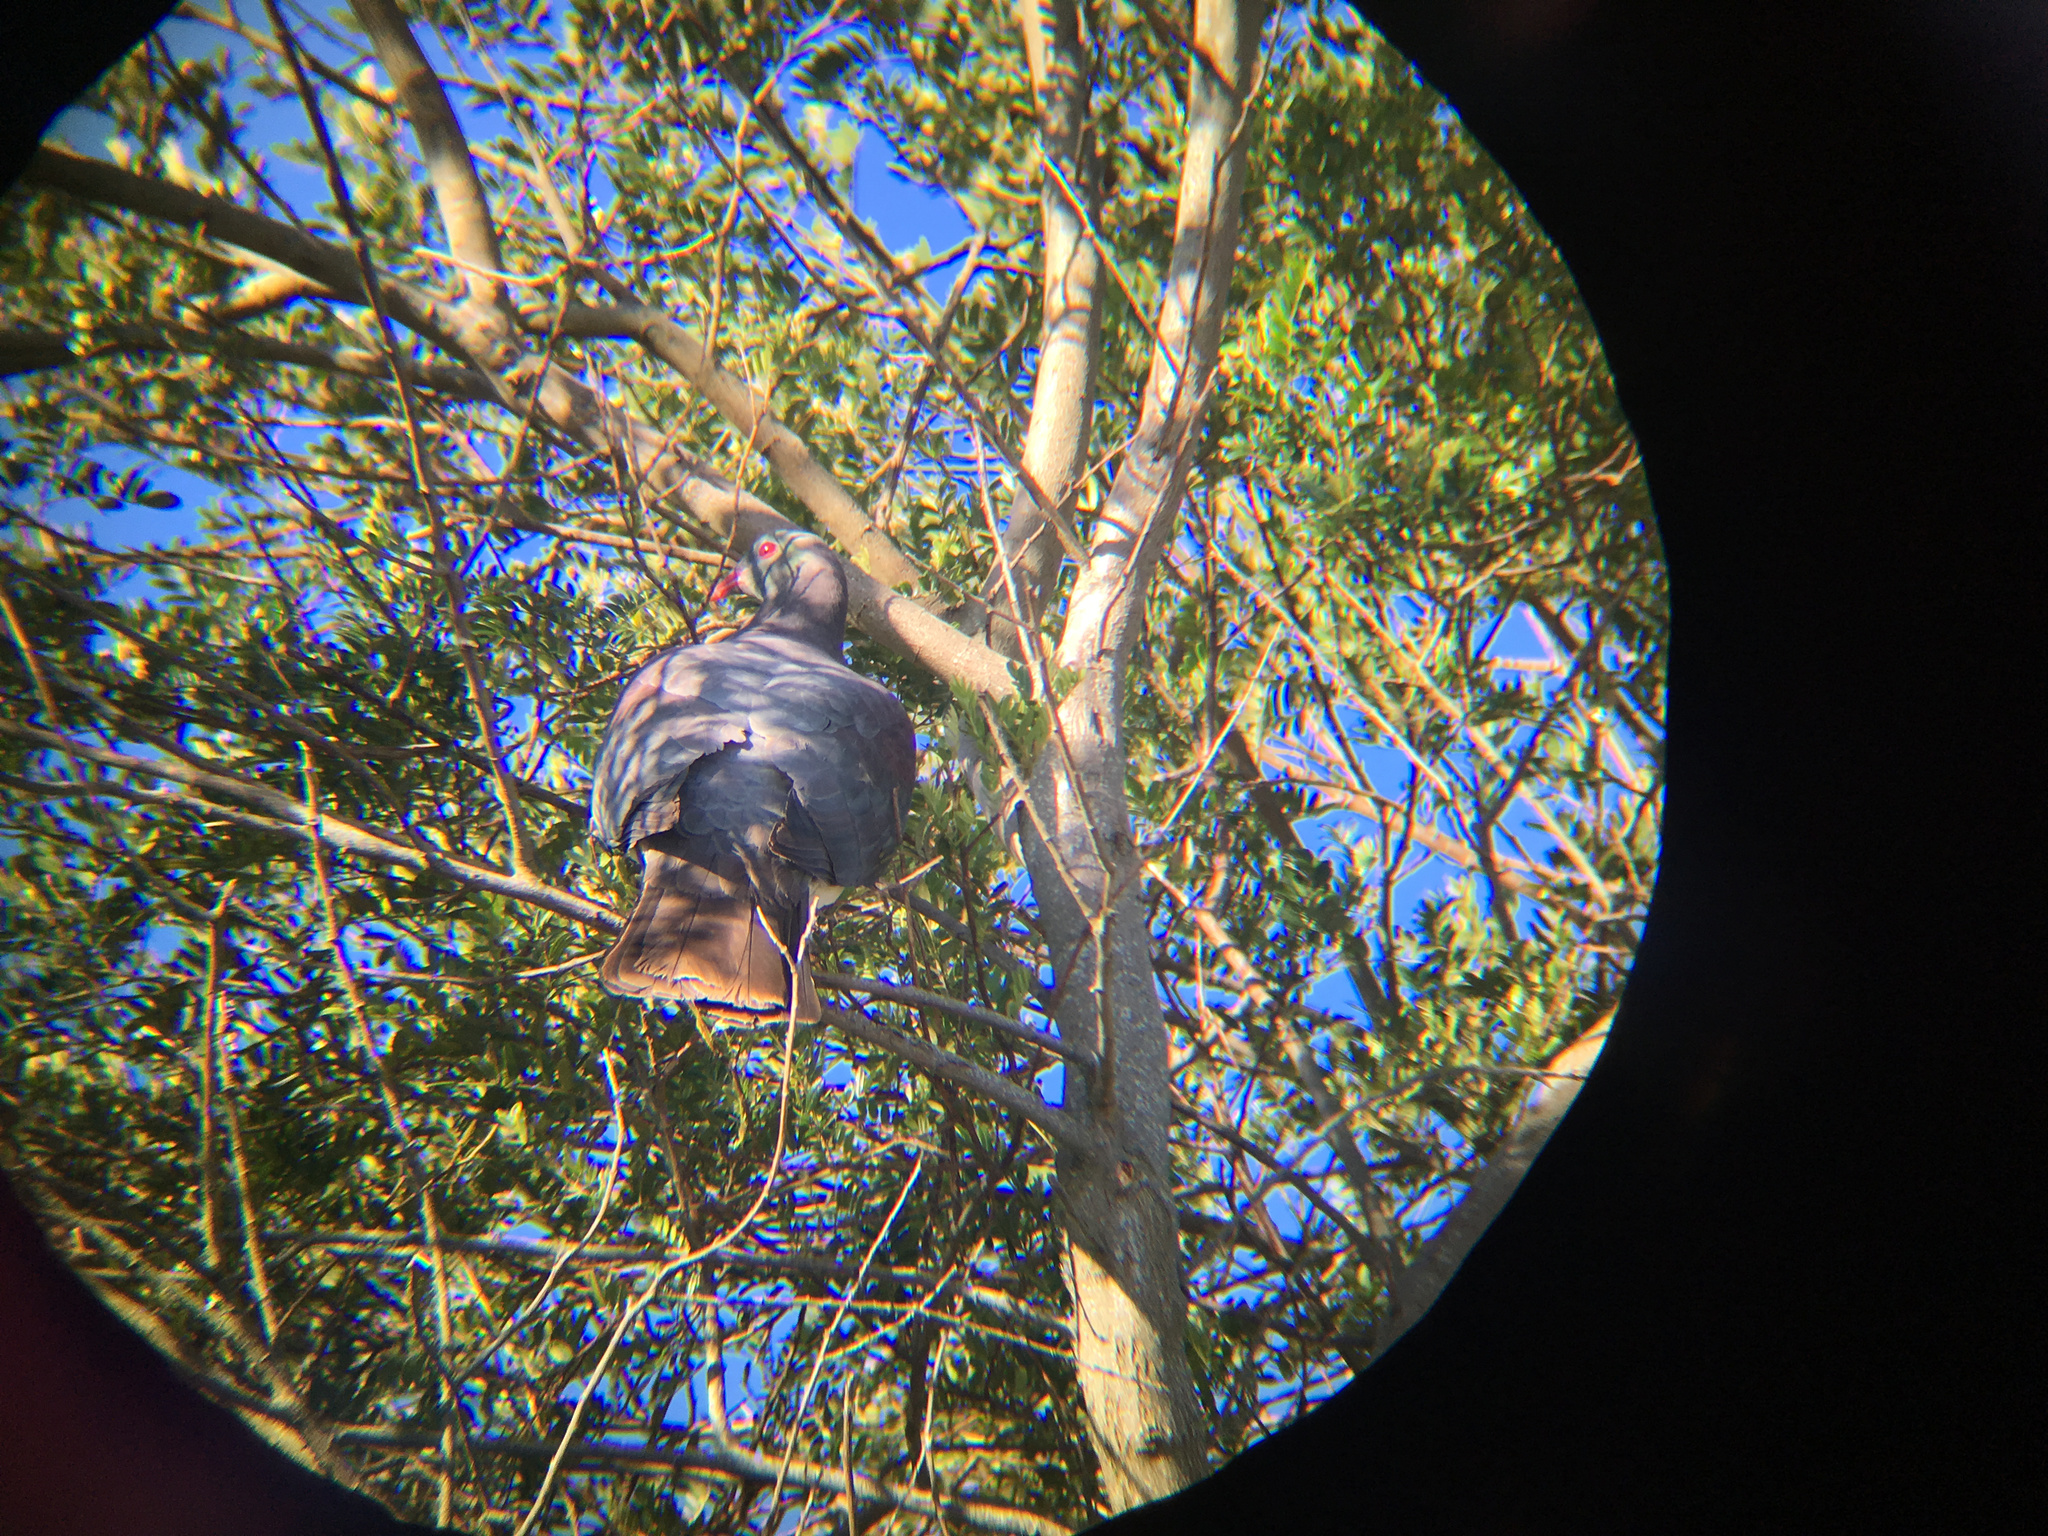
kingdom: Animalia
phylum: Chordata
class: Aves
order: Columbiformes
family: Columbidae
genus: Hemiphaga
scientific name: Hemiphaga novaeseelandiae
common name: New zealand pigeon
